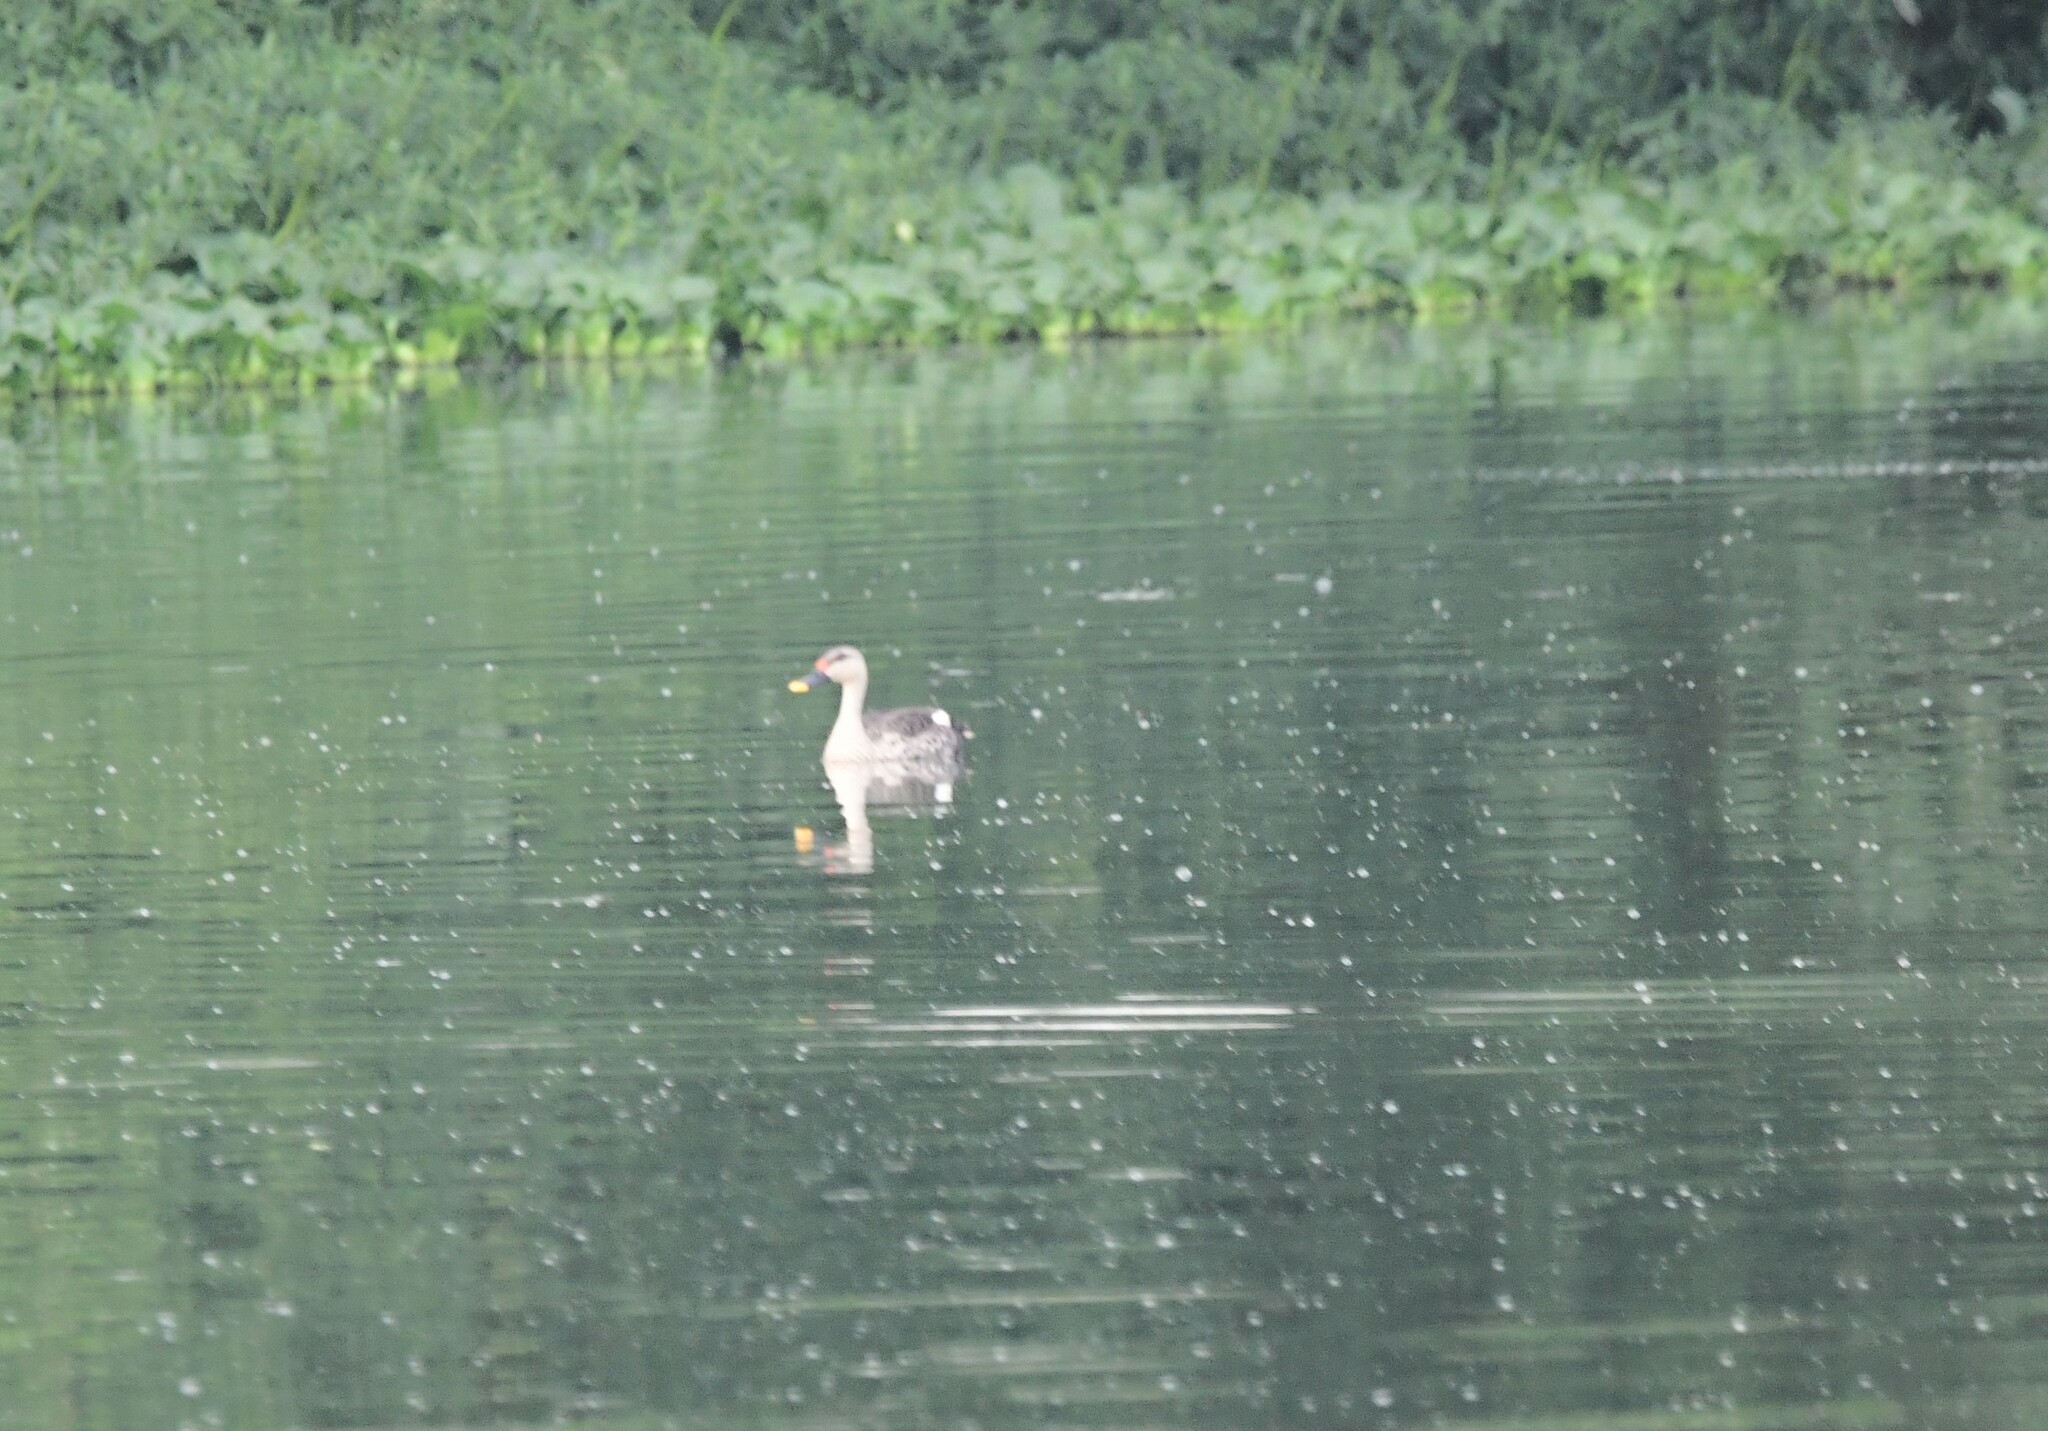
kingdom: Animalia
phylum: Chordata
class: Aves
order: Anseriformes
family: Anatidae
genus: Anas
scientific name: Anas poecilorhyncha
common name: Indian spot-billed duck
